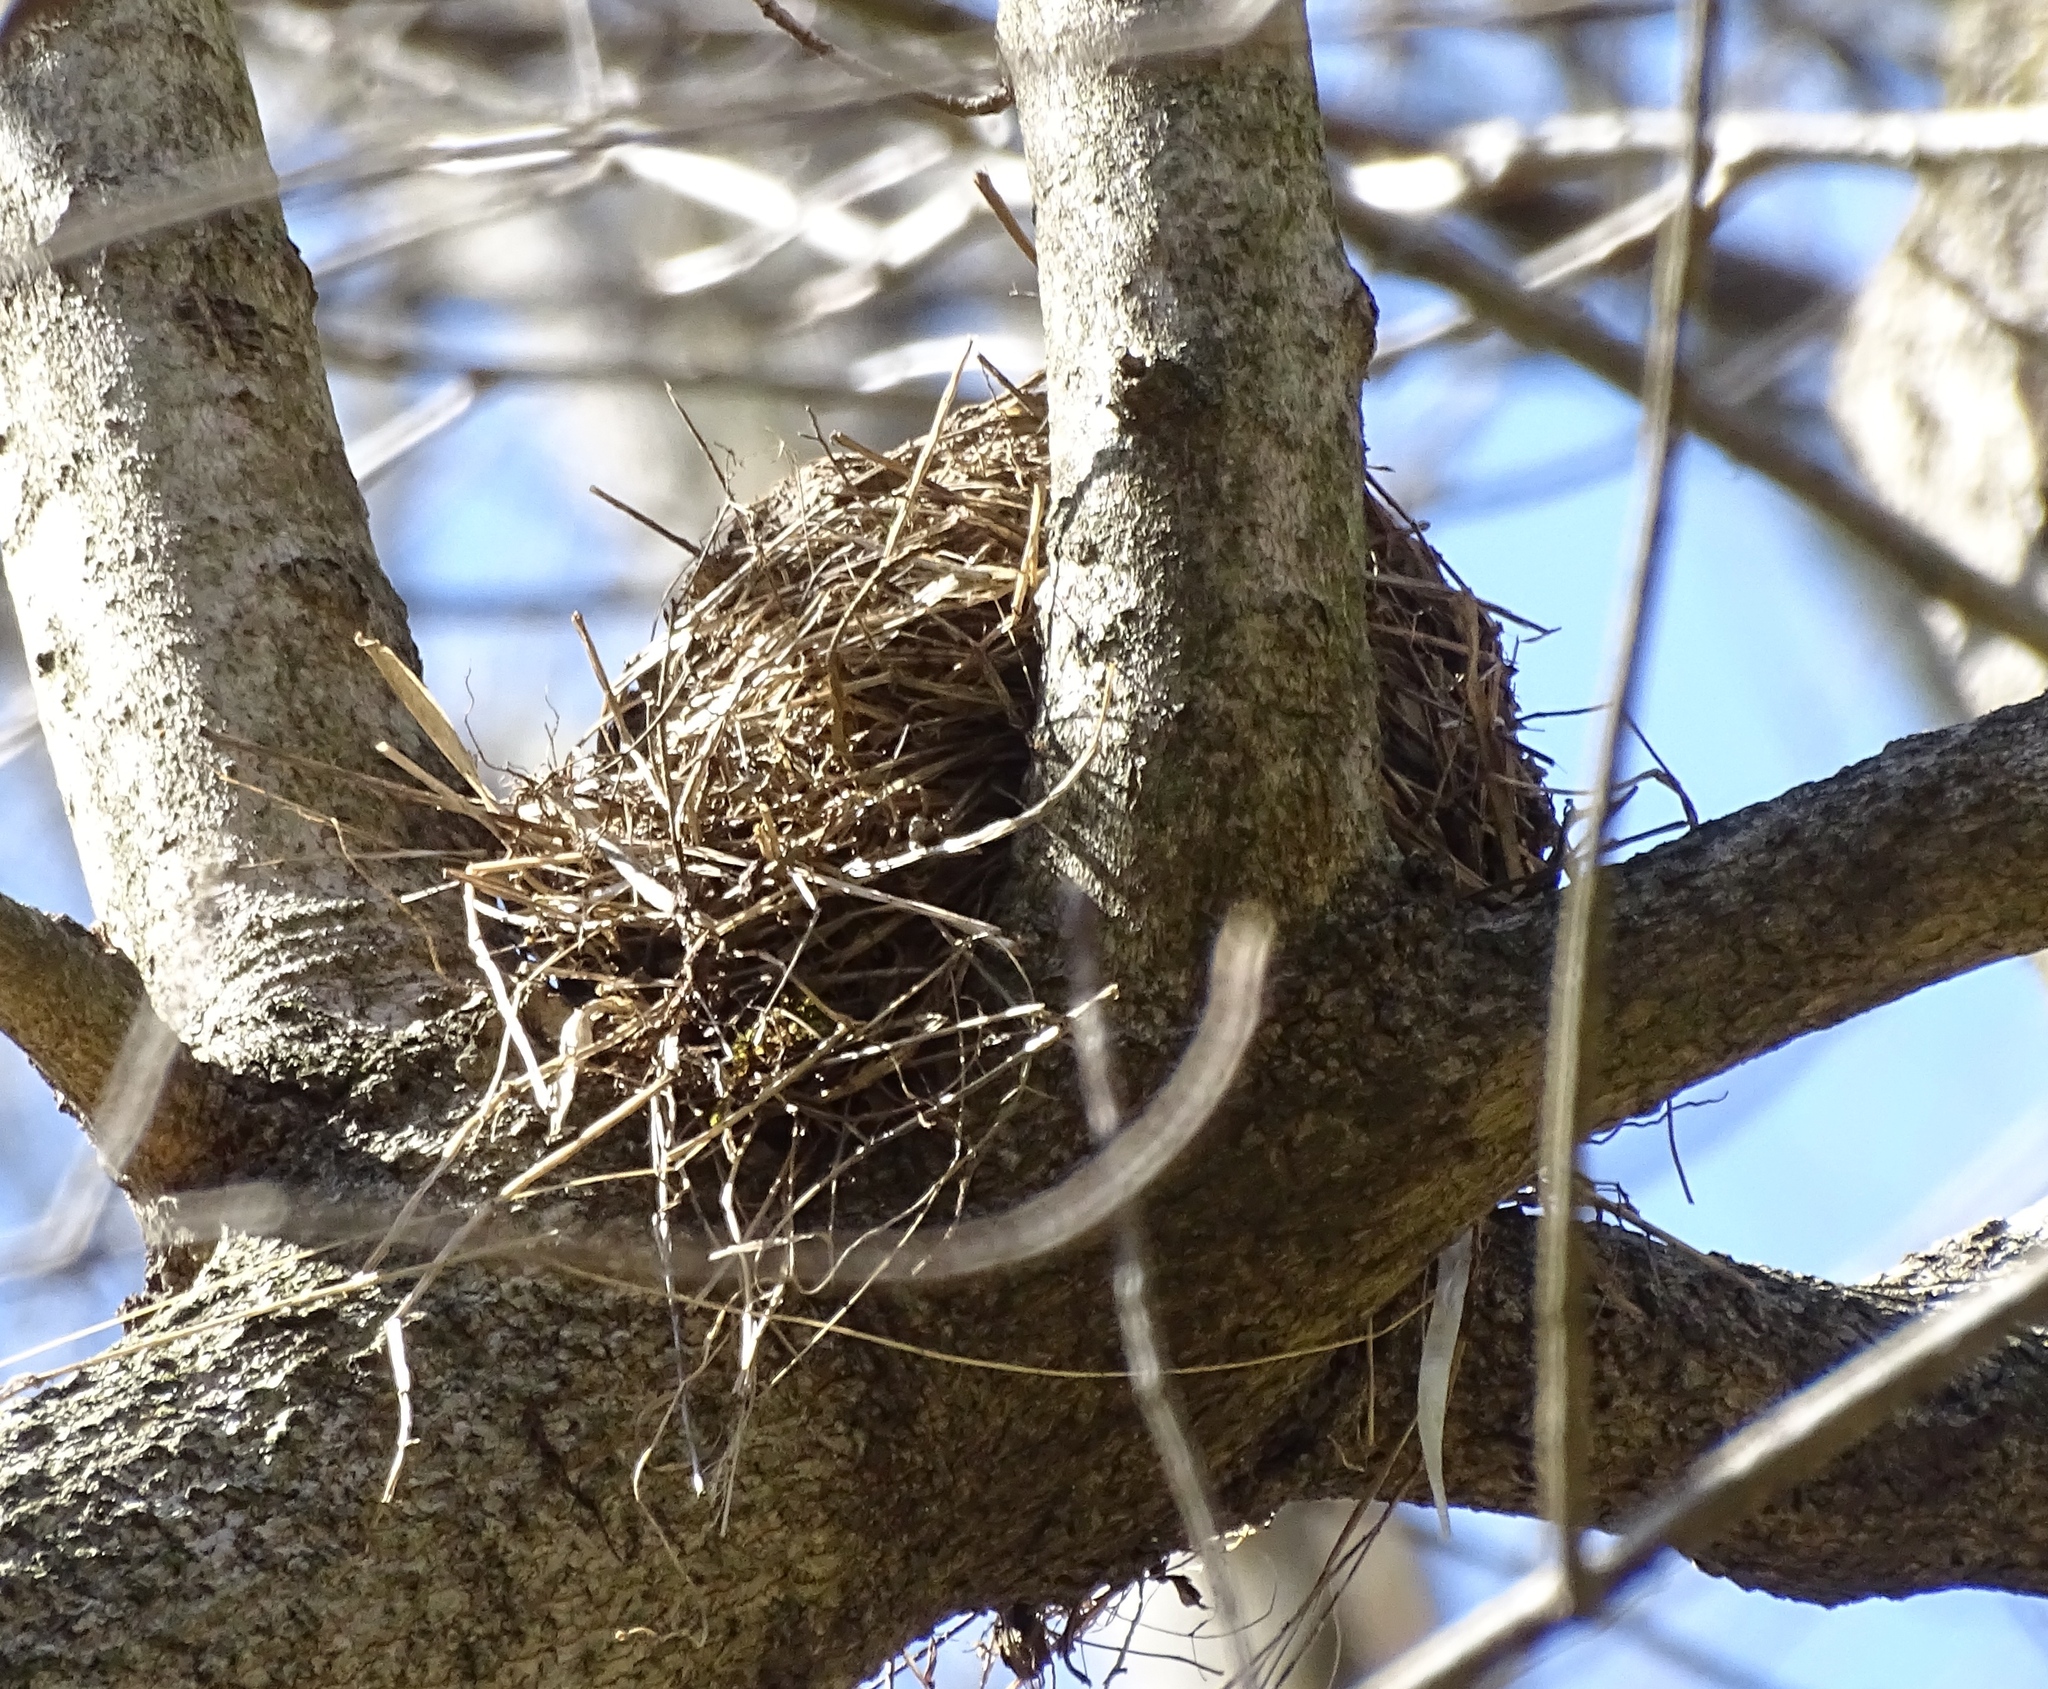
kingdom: Animalia
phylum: Chordata
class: Aves
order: Passeriformes
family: Turdidae
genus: Turdus
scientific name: Turdus migratorius
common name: American robin
